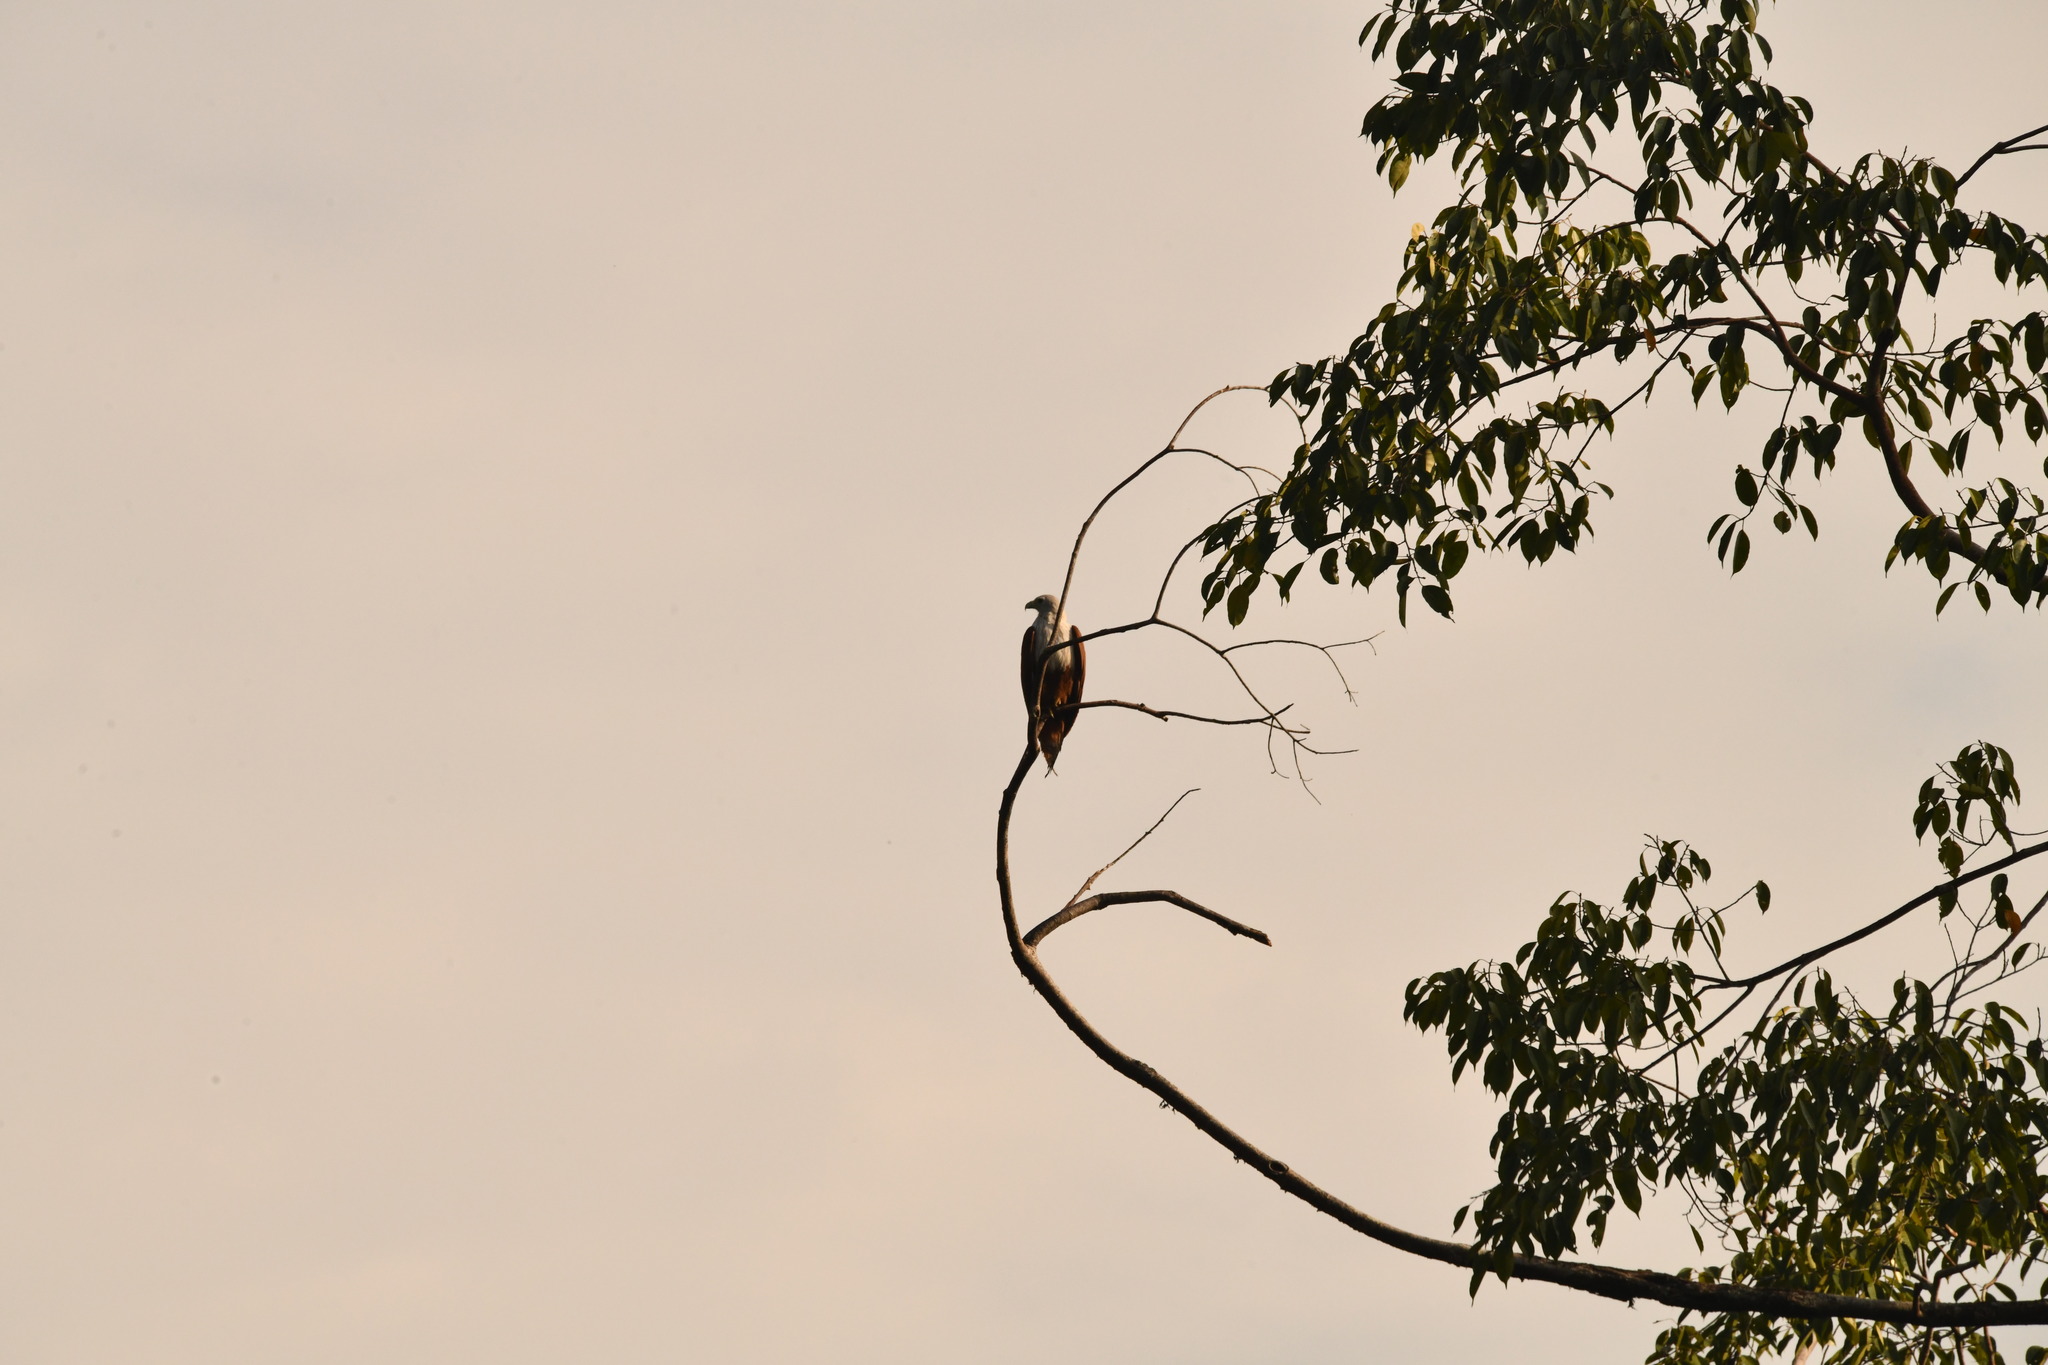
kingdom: Animalia
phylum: Chordata
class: Aves
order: Accipitriformes
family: Accipitridae
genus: Haliastur
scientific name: Haliastur indus
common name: Brahminy kite
